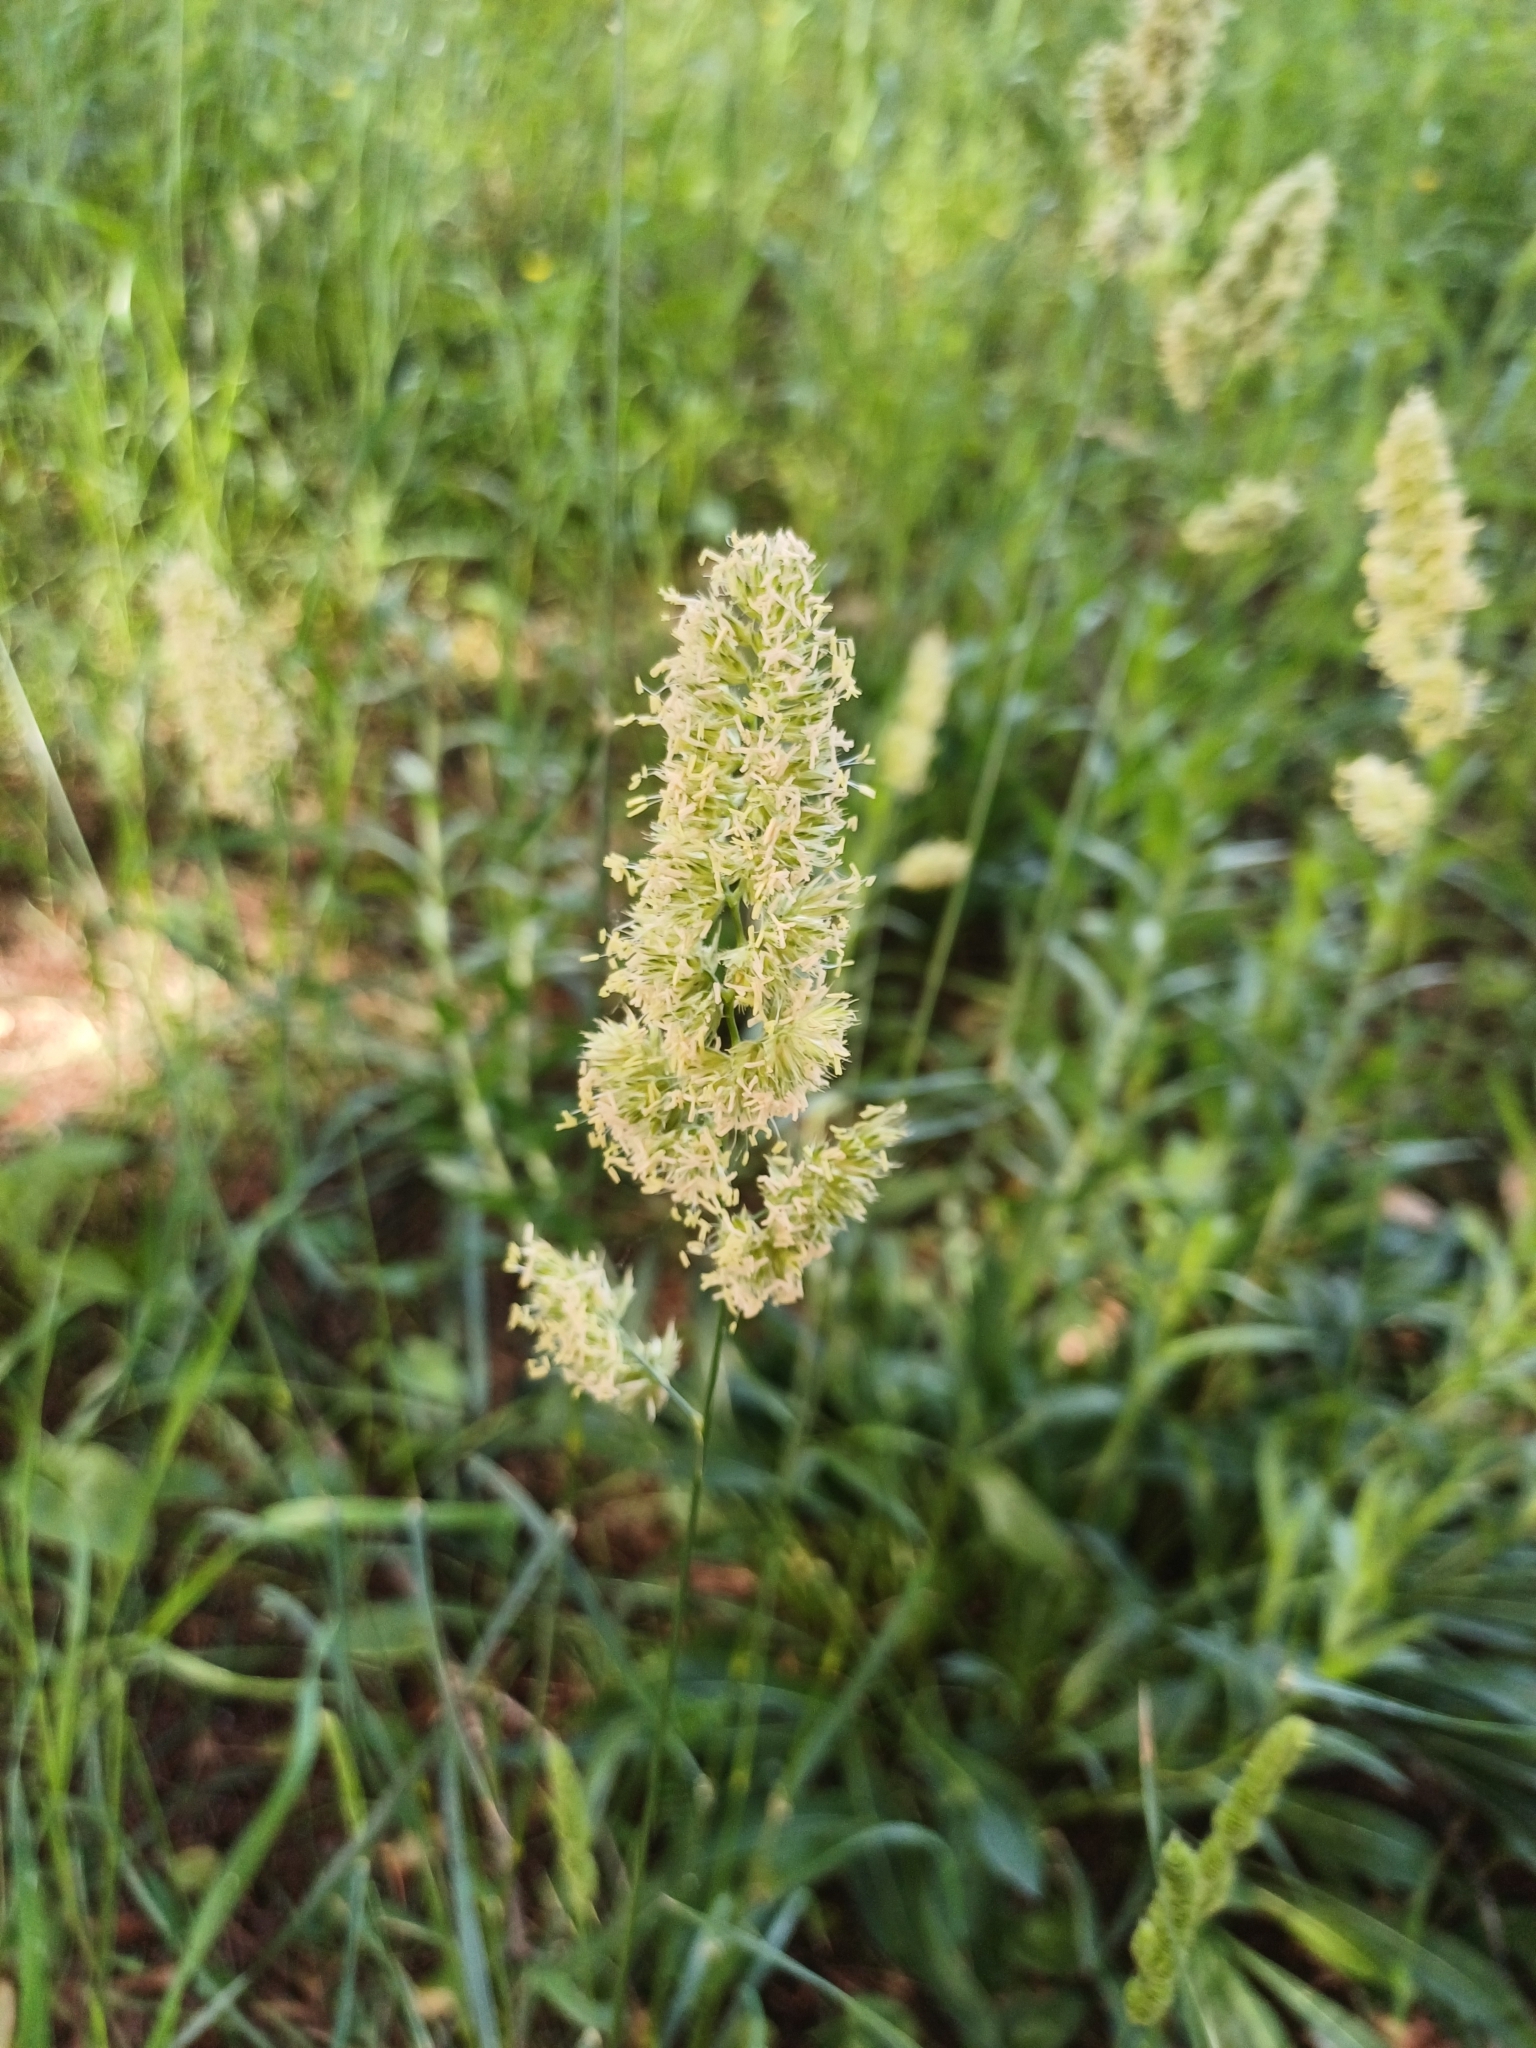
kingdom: Plantae
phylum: Tracheophyta
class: Liliopsida
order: Poales
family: Poaceae
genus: Dactylis
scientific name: Dactylis glomerata
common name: Orchardgrass
